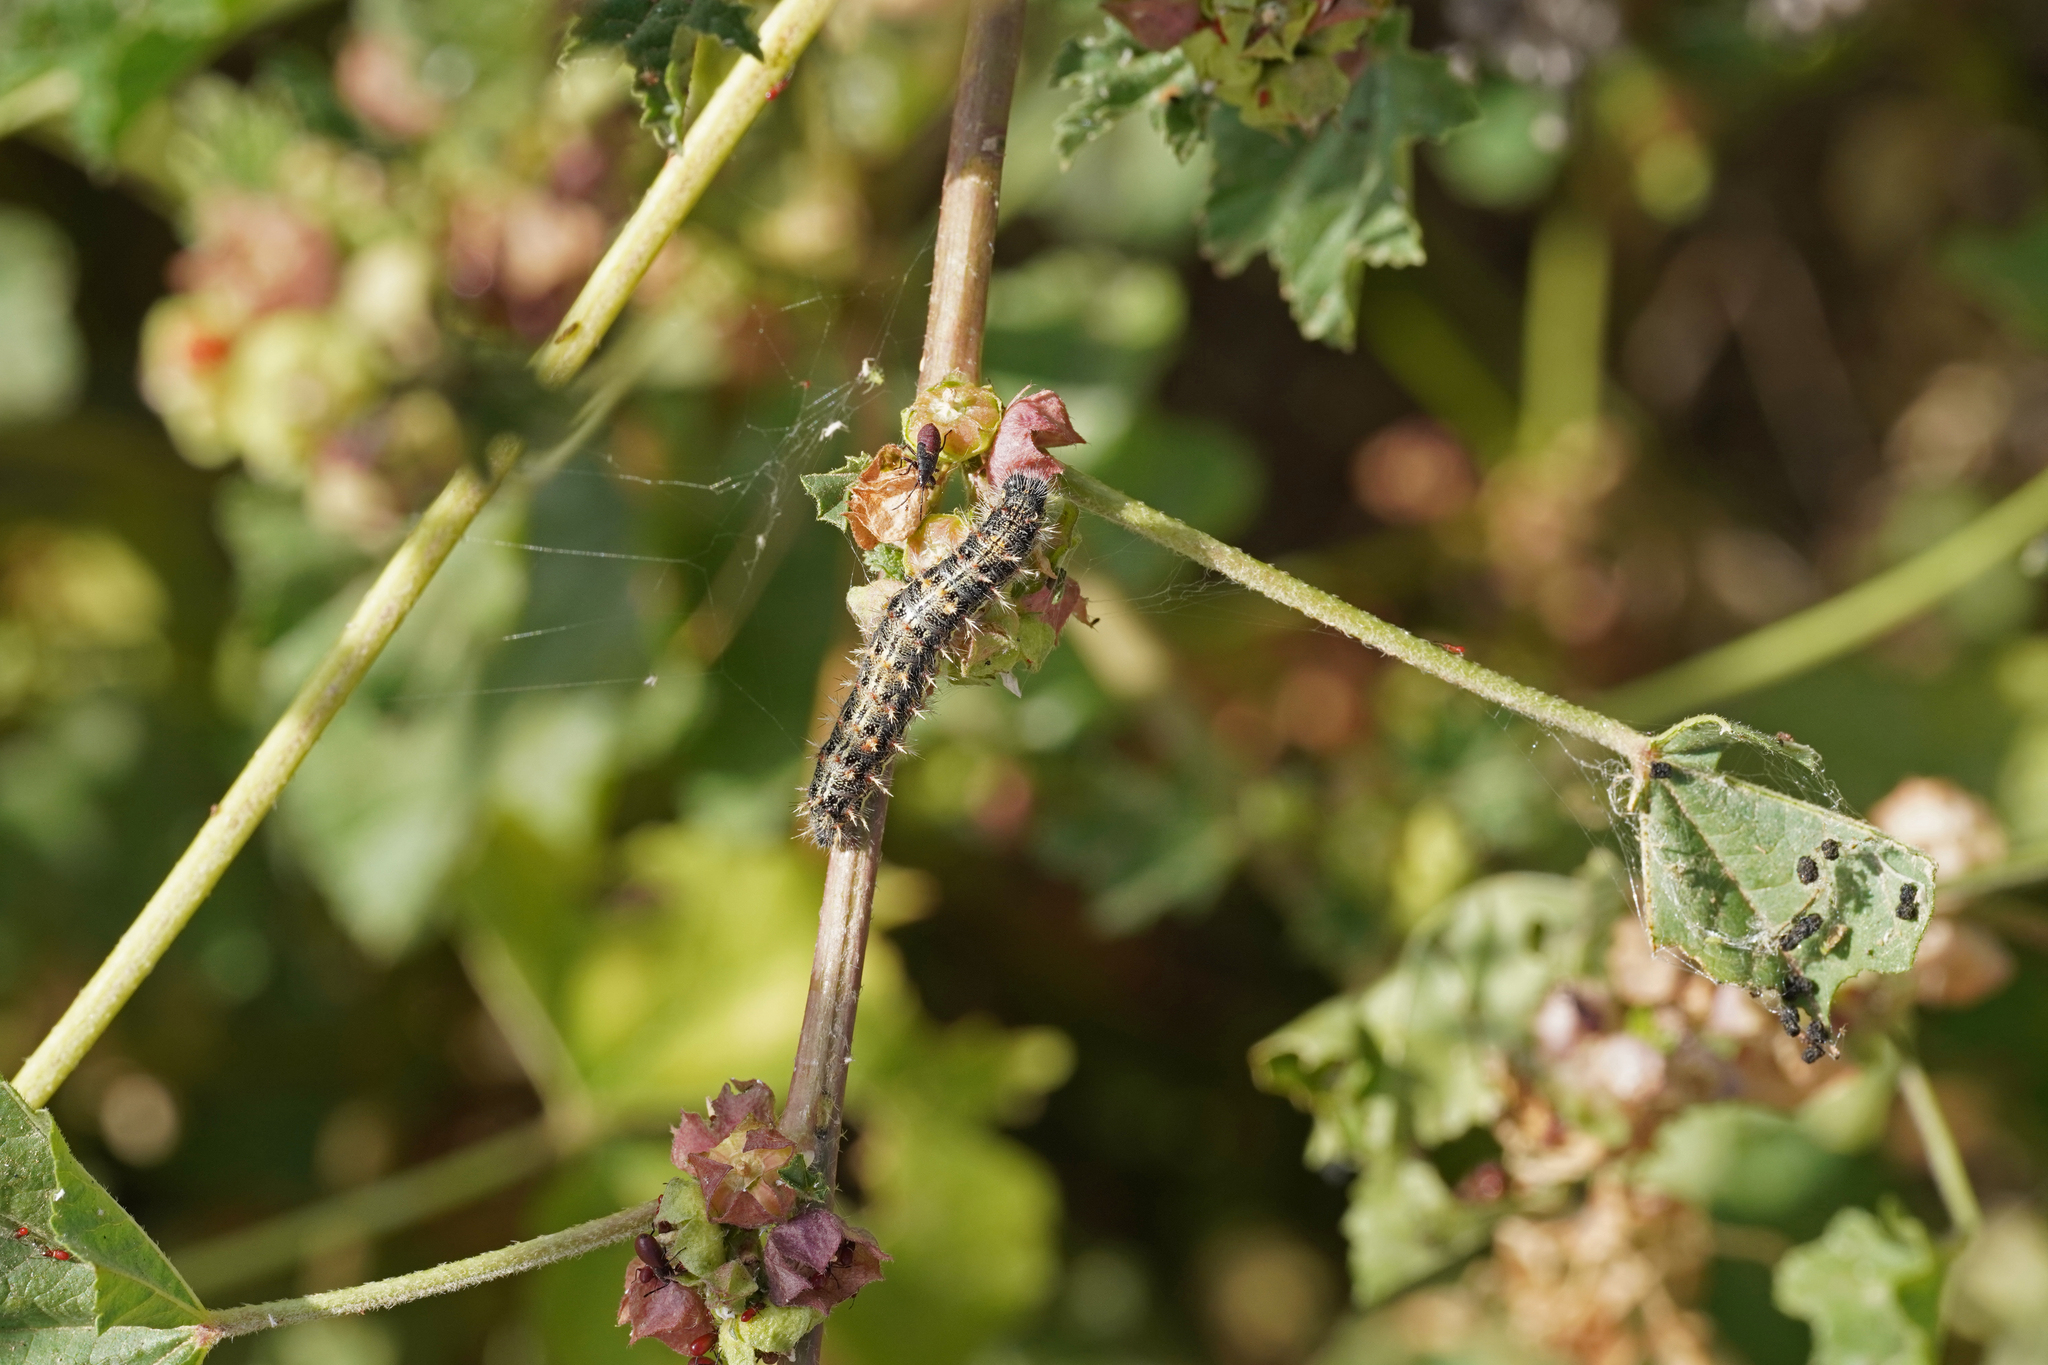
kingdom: Animalia
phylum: Arthropoda
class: Insecta
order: Lepidoptera
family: Nymphalidae
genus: Vanessa
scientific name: Vanessa cardui
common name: Painted lady
